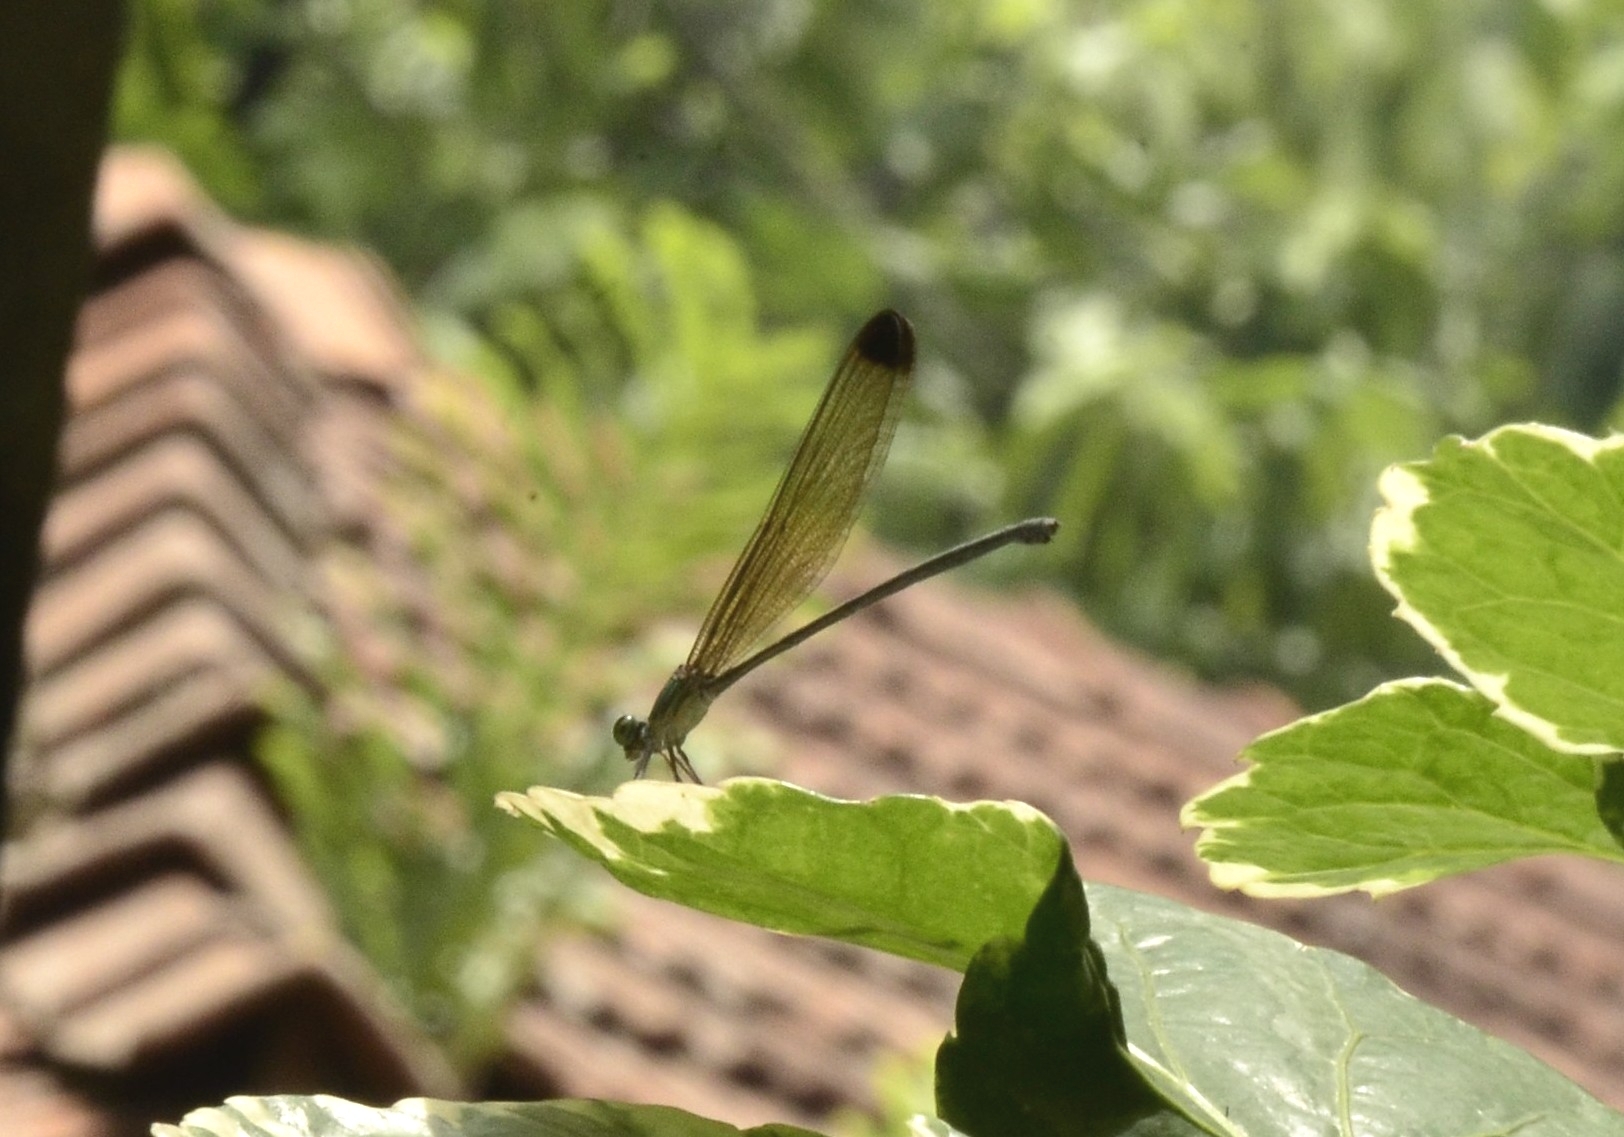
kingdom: Animalia
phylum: Arthropoda
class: Insecta
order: Odonata
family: Calopterygidae
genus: Vestalis
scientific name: Vestalis apicalis
